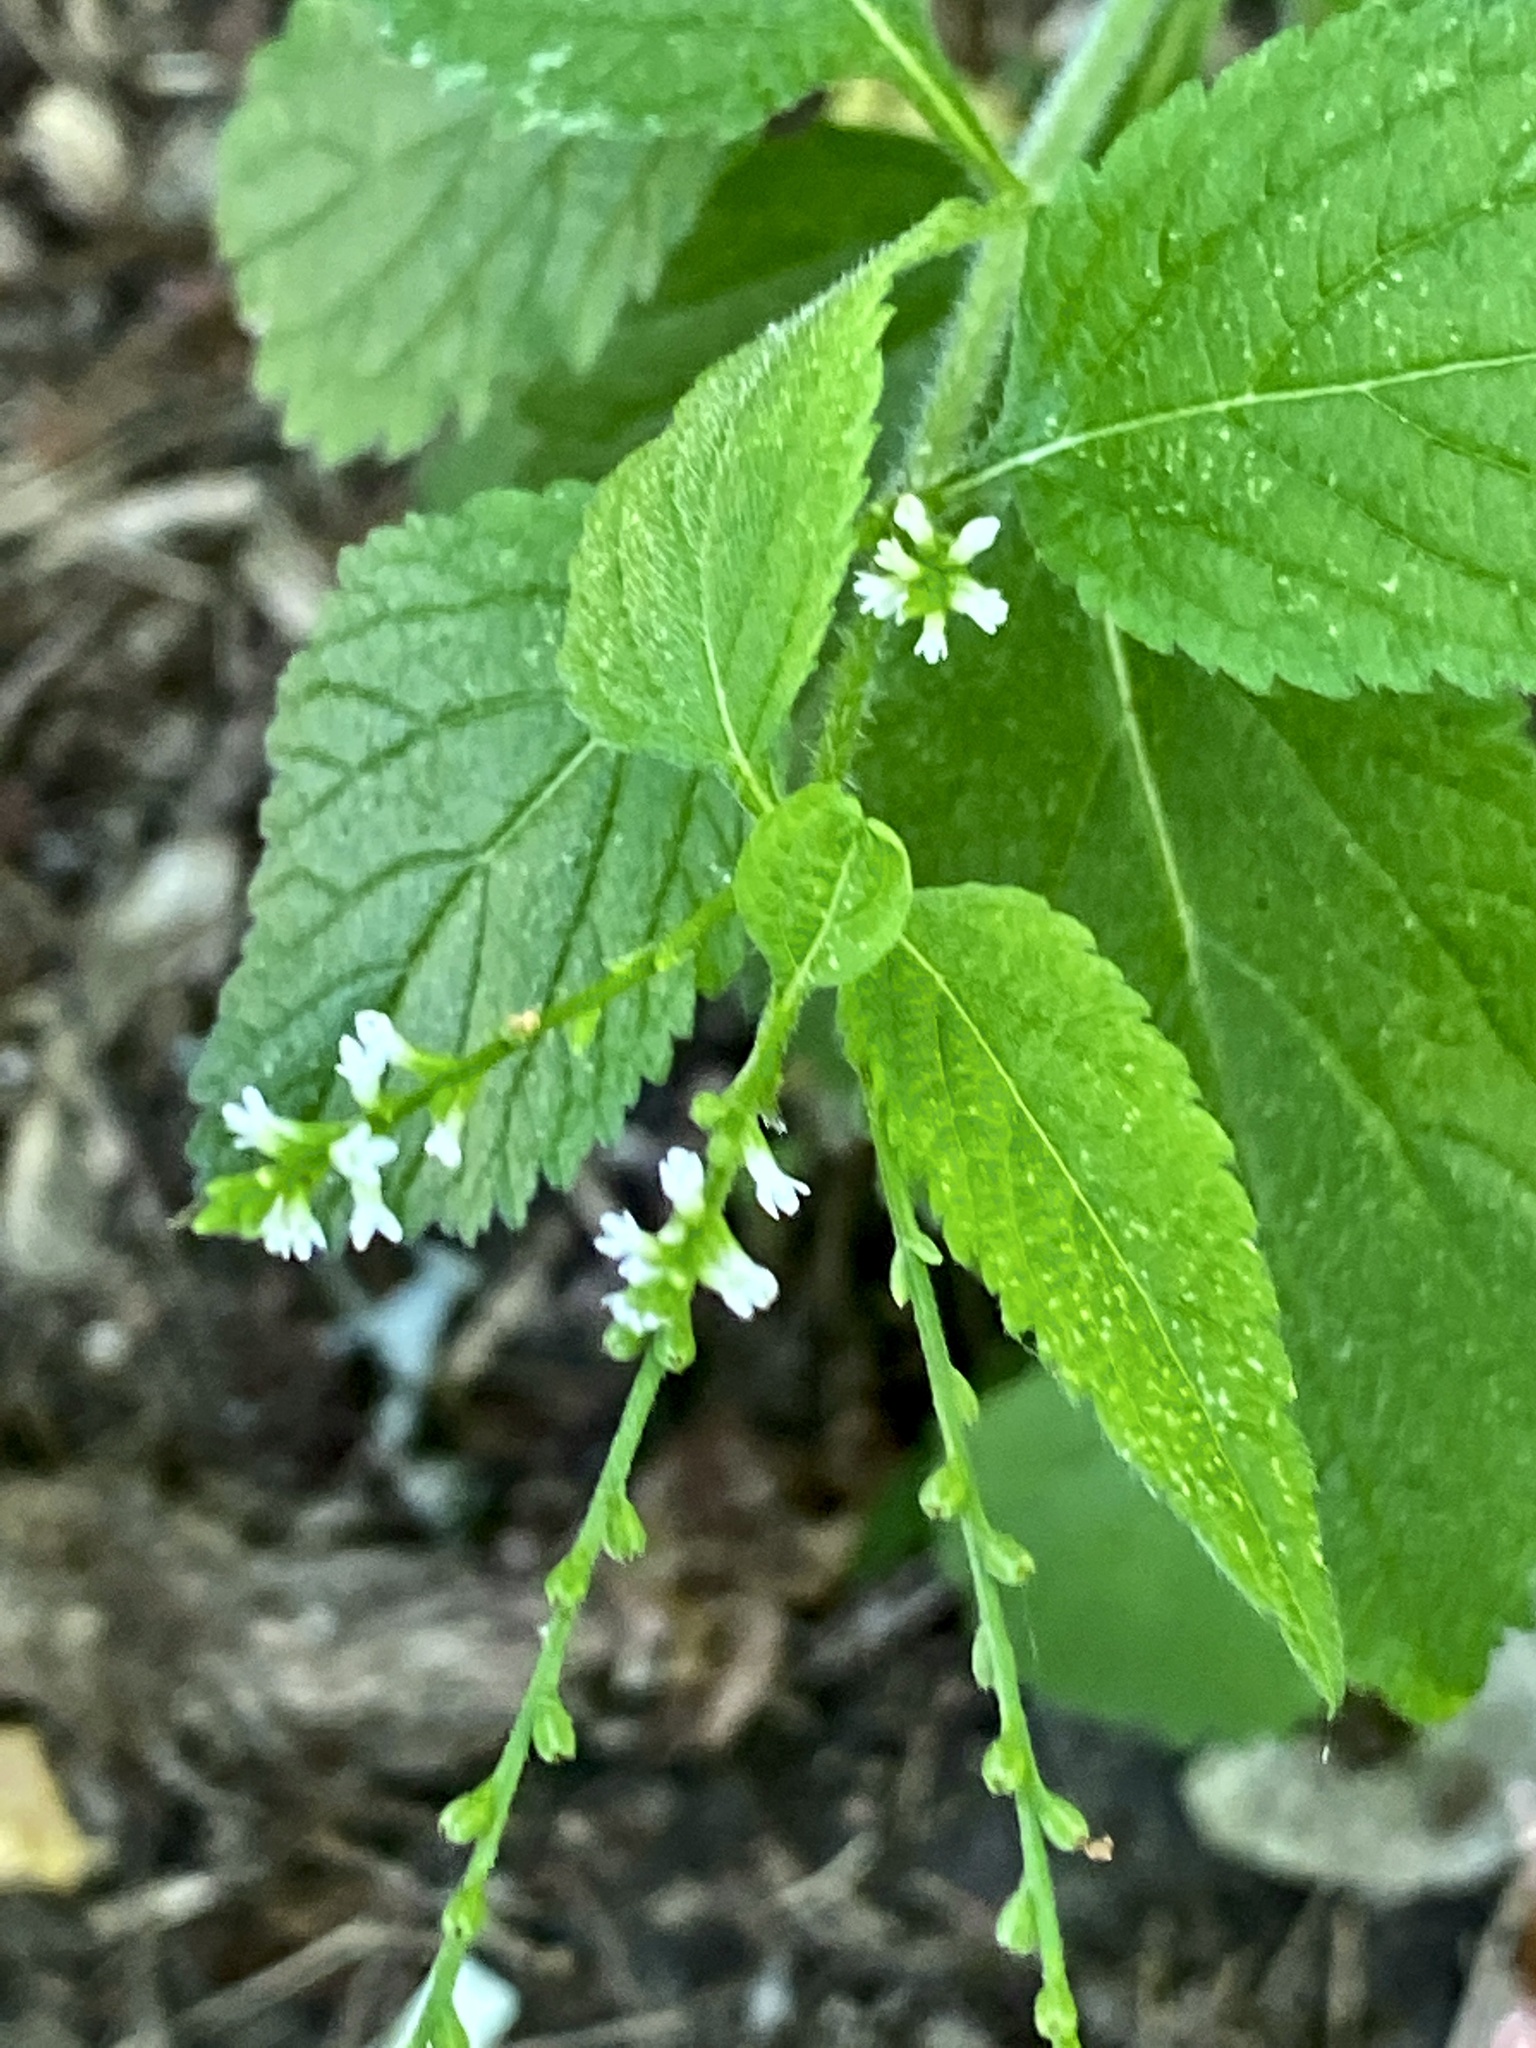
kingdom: Plantae
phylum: Tracheophyta
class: Magnoliopsida
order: Lamiales
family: Verbenaceae
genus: Verbena
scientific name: Verbena urticifolia
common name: Nettle-leaved vervain
